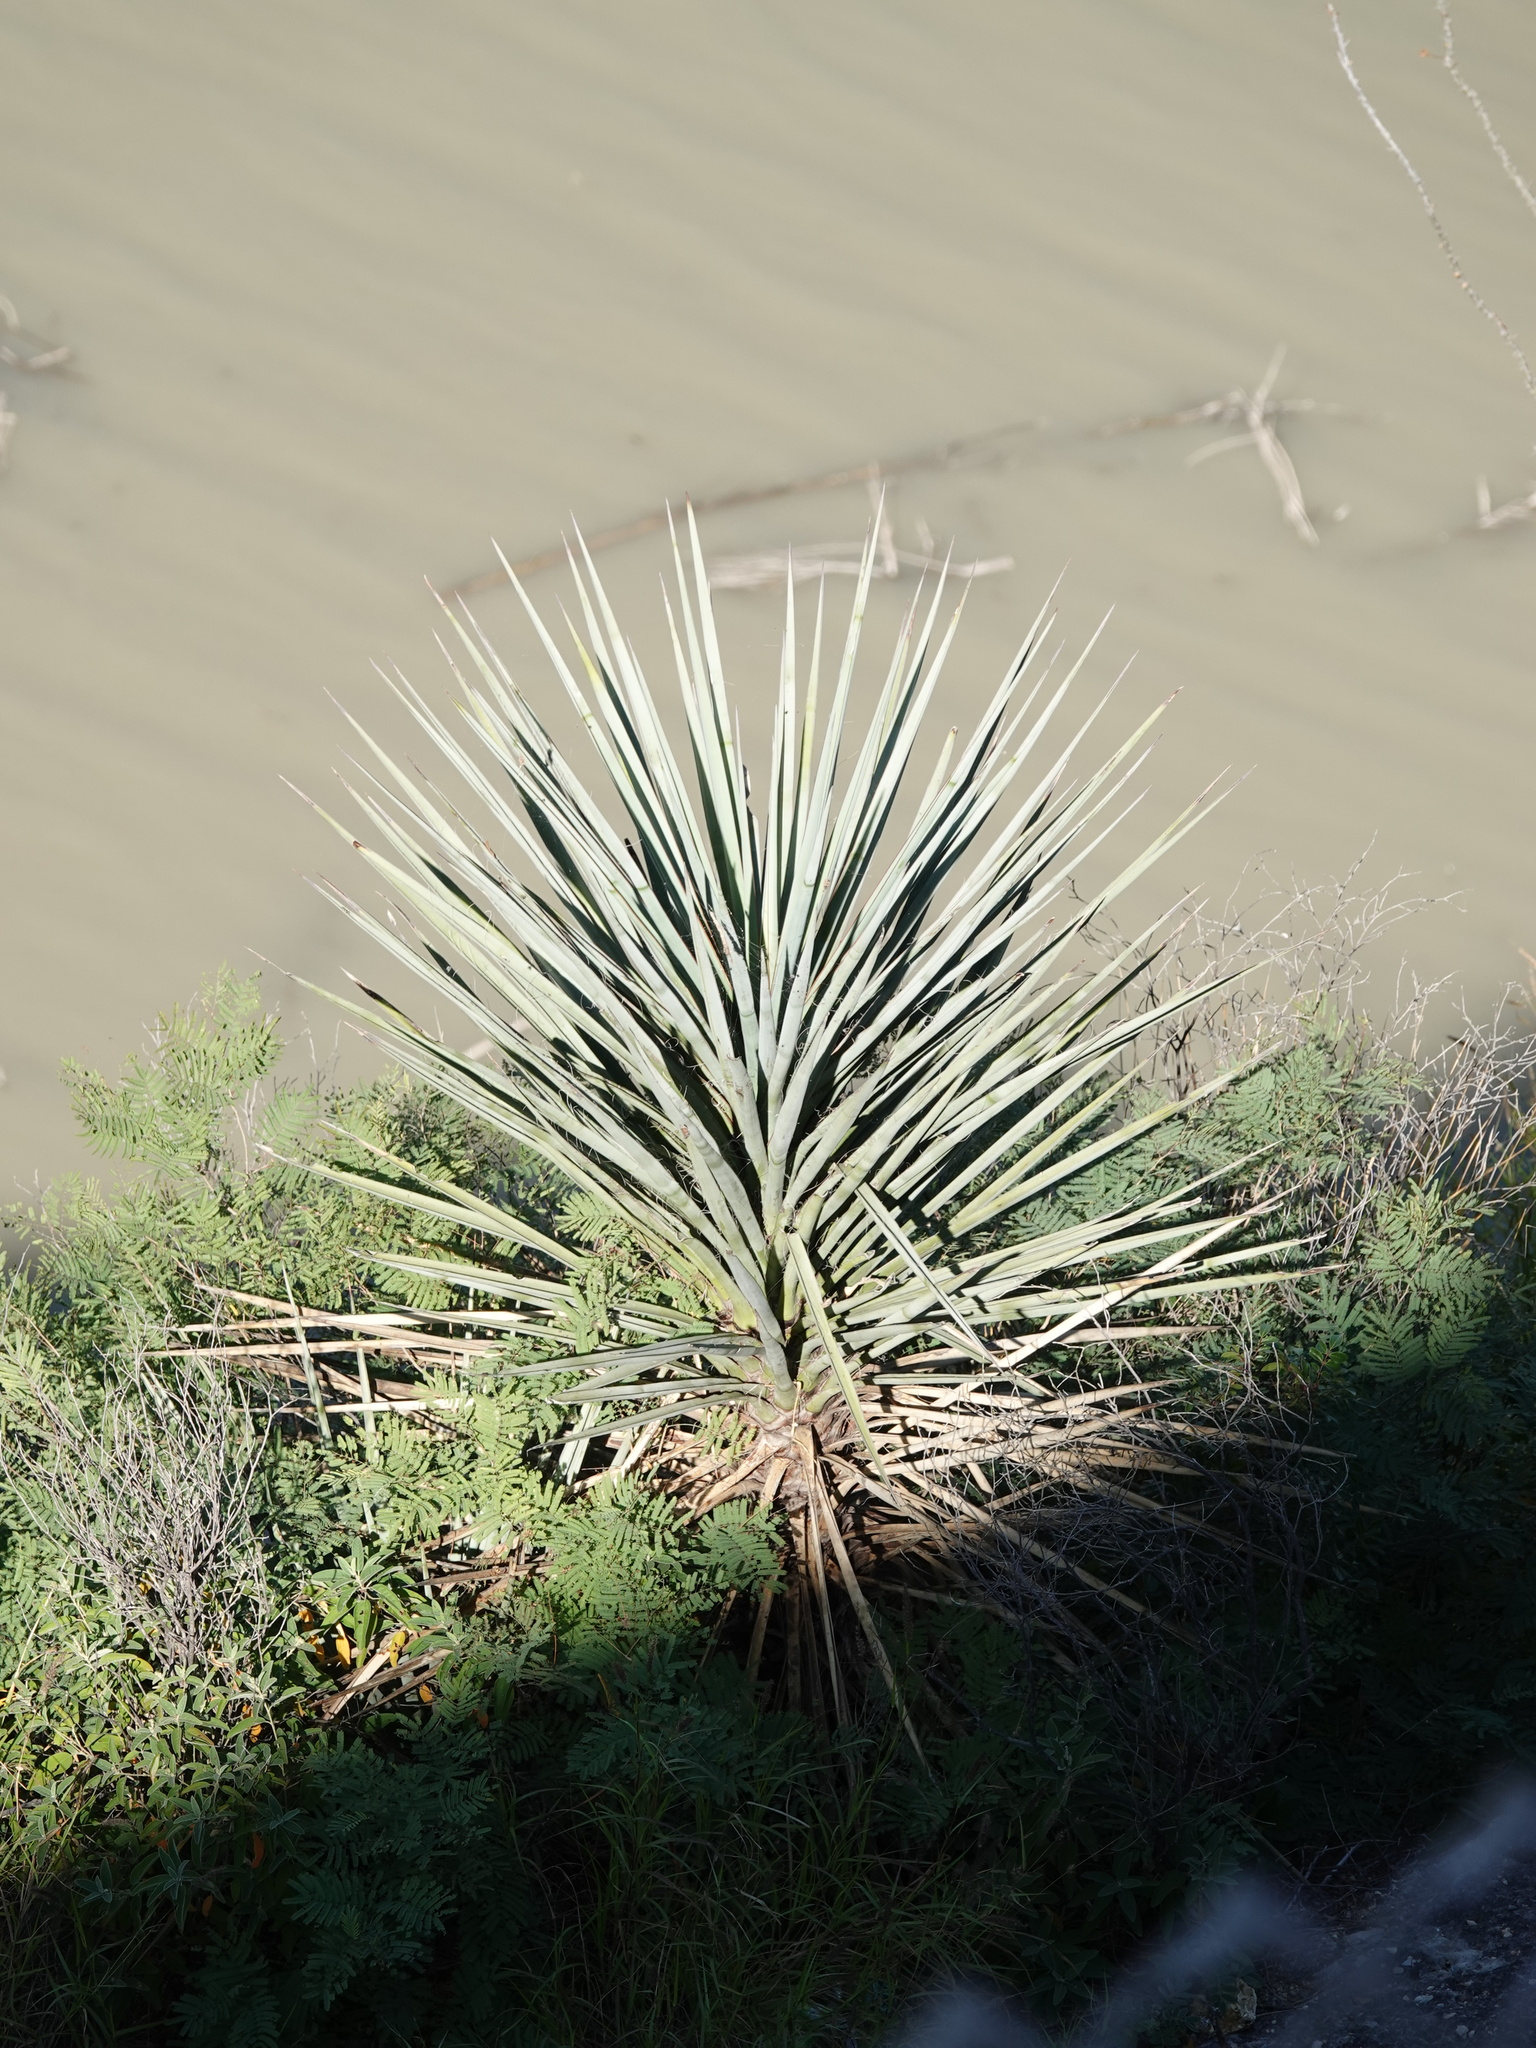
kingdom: Plantae
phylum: Tracheophyta
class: Liliopsida
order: Asparagales
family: Asparagaceae
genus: Yucca
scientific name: Yucca treculiana
